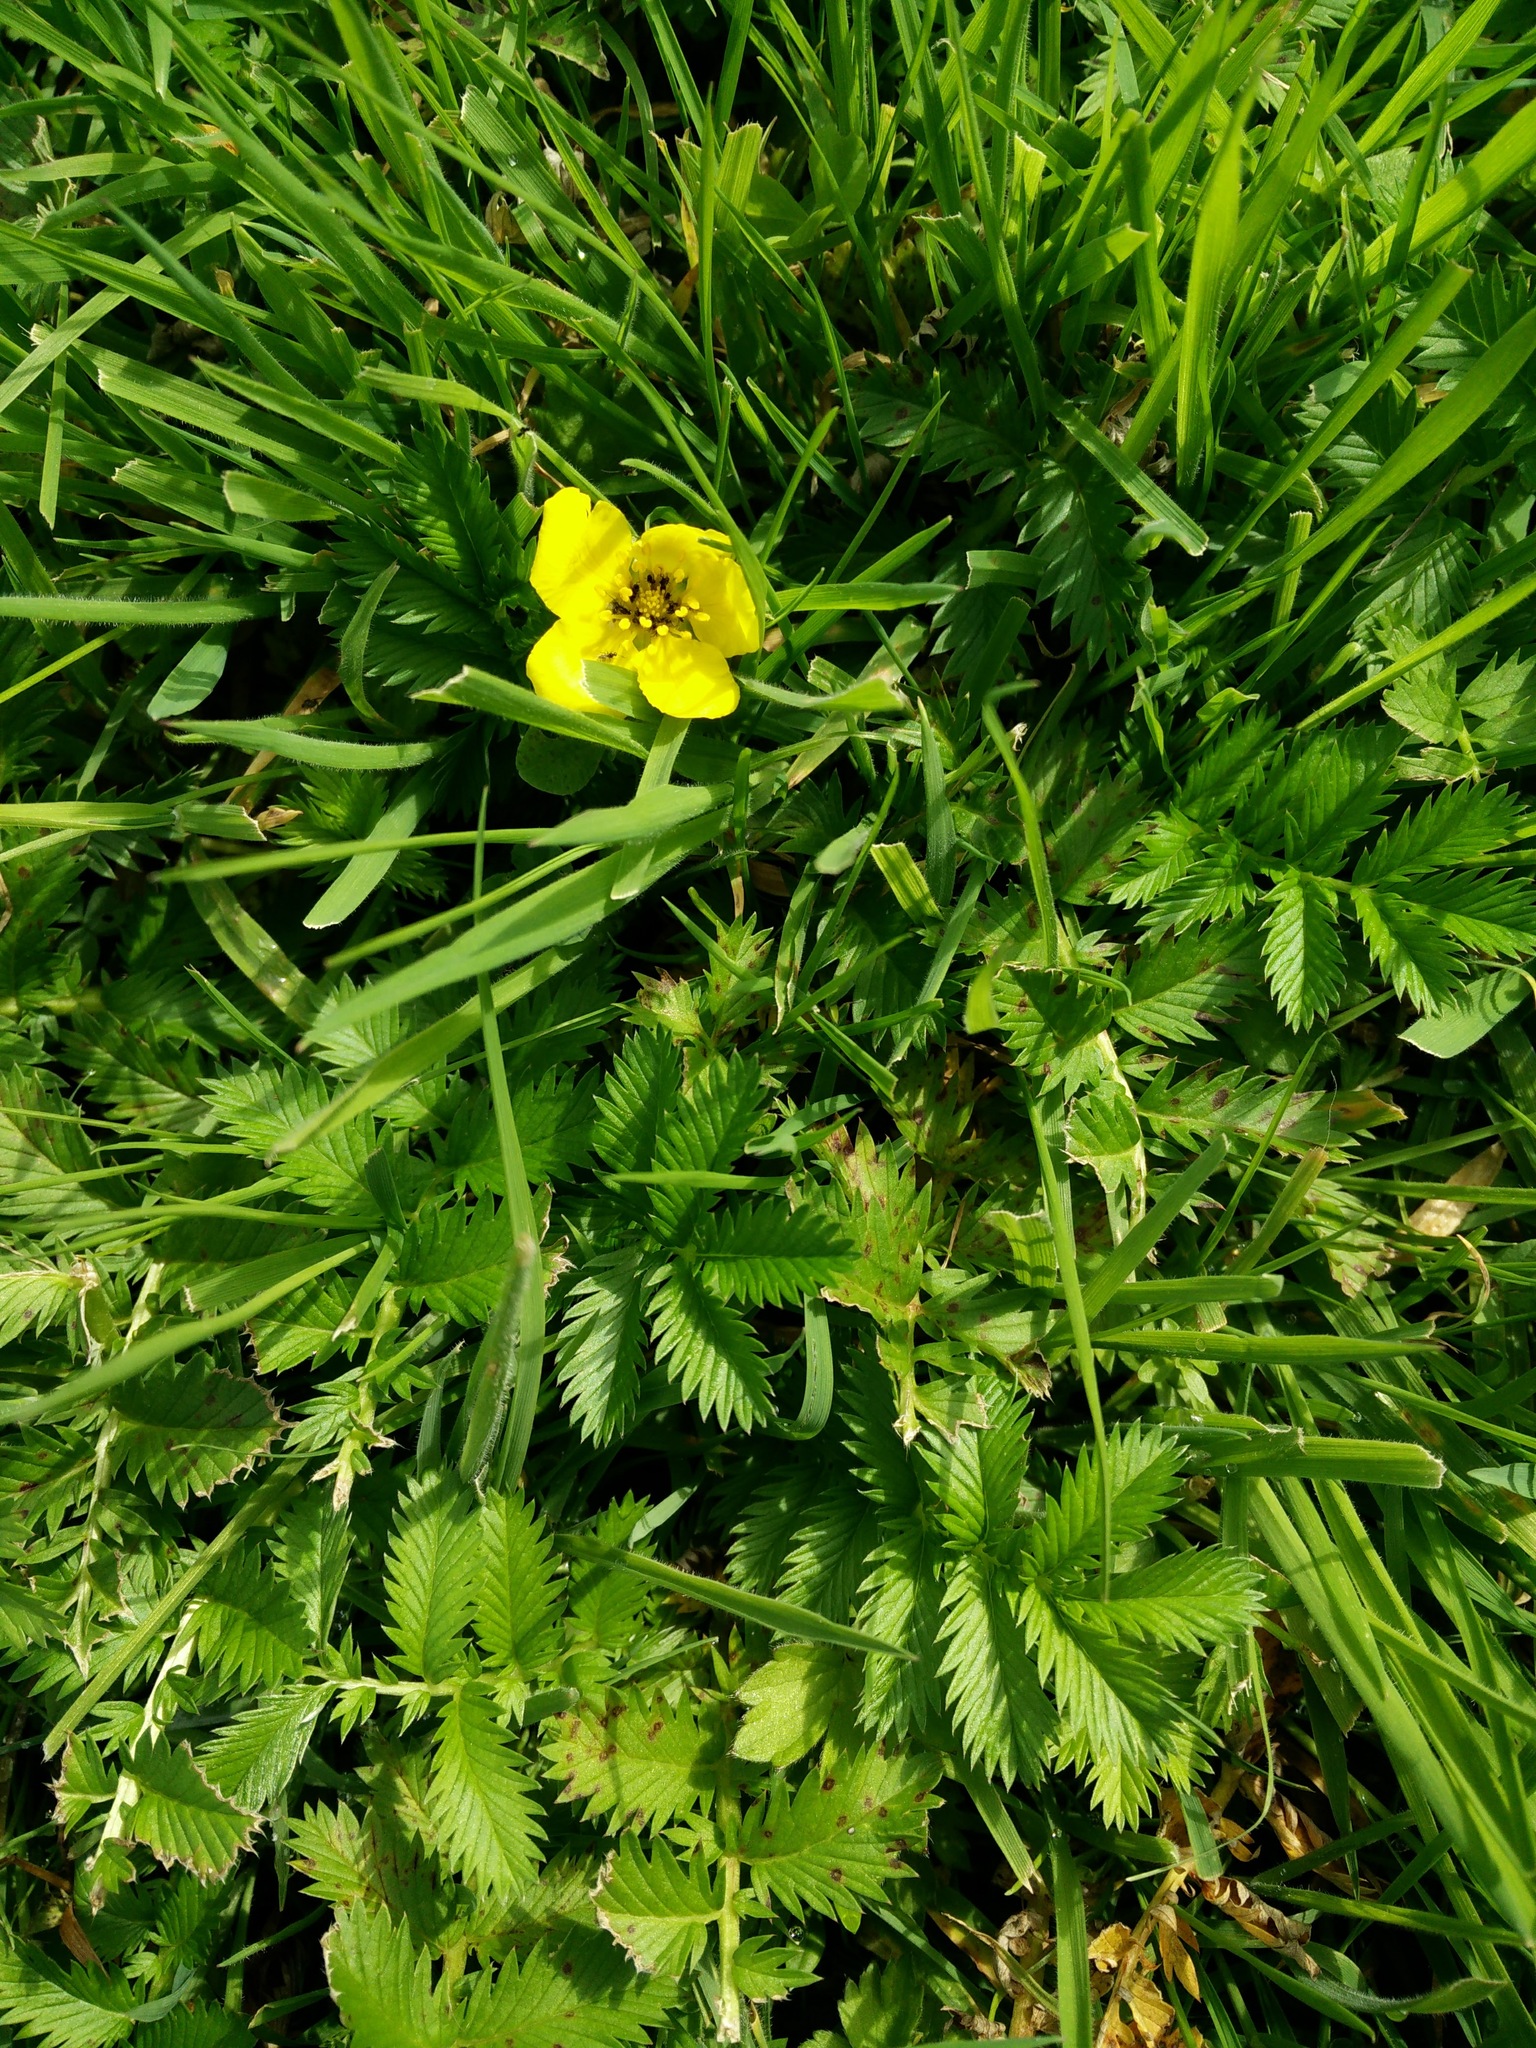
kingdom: Plantae
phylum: Tracheophyta
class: Magnoliopsida
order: Rosales
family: Rosaceae
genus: Argentina
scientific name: Argentina anserina
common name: Common silverweed
